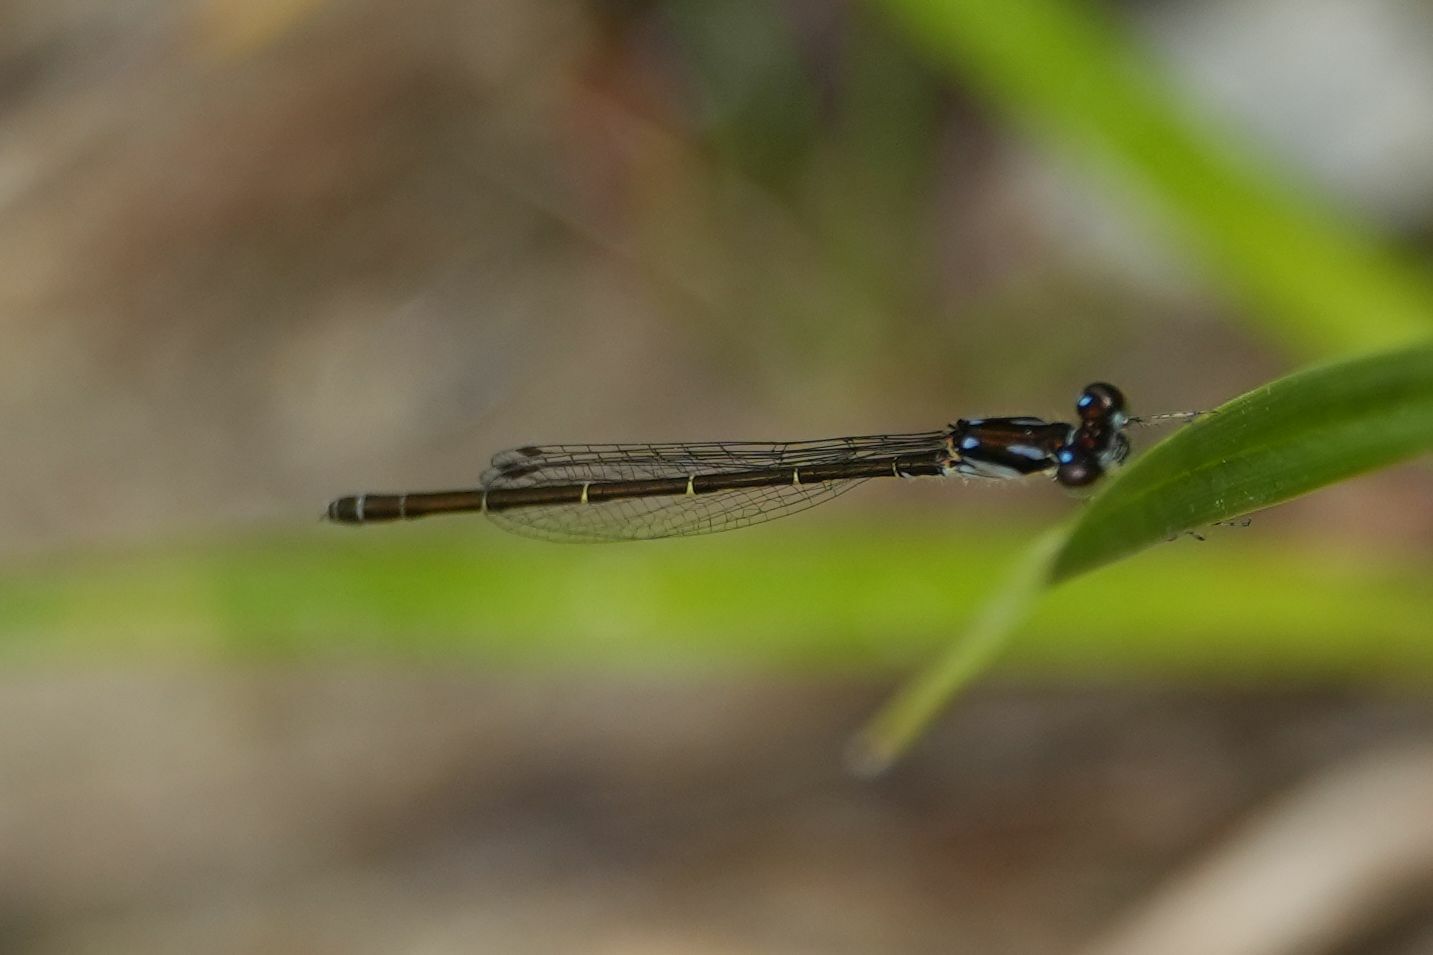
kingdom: Animalia
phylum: Arthropoda
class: Insecta
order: Odonata
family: Coenagrionidae
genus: Ischnura
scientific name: Ischnura posita
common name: Fragile forktail
